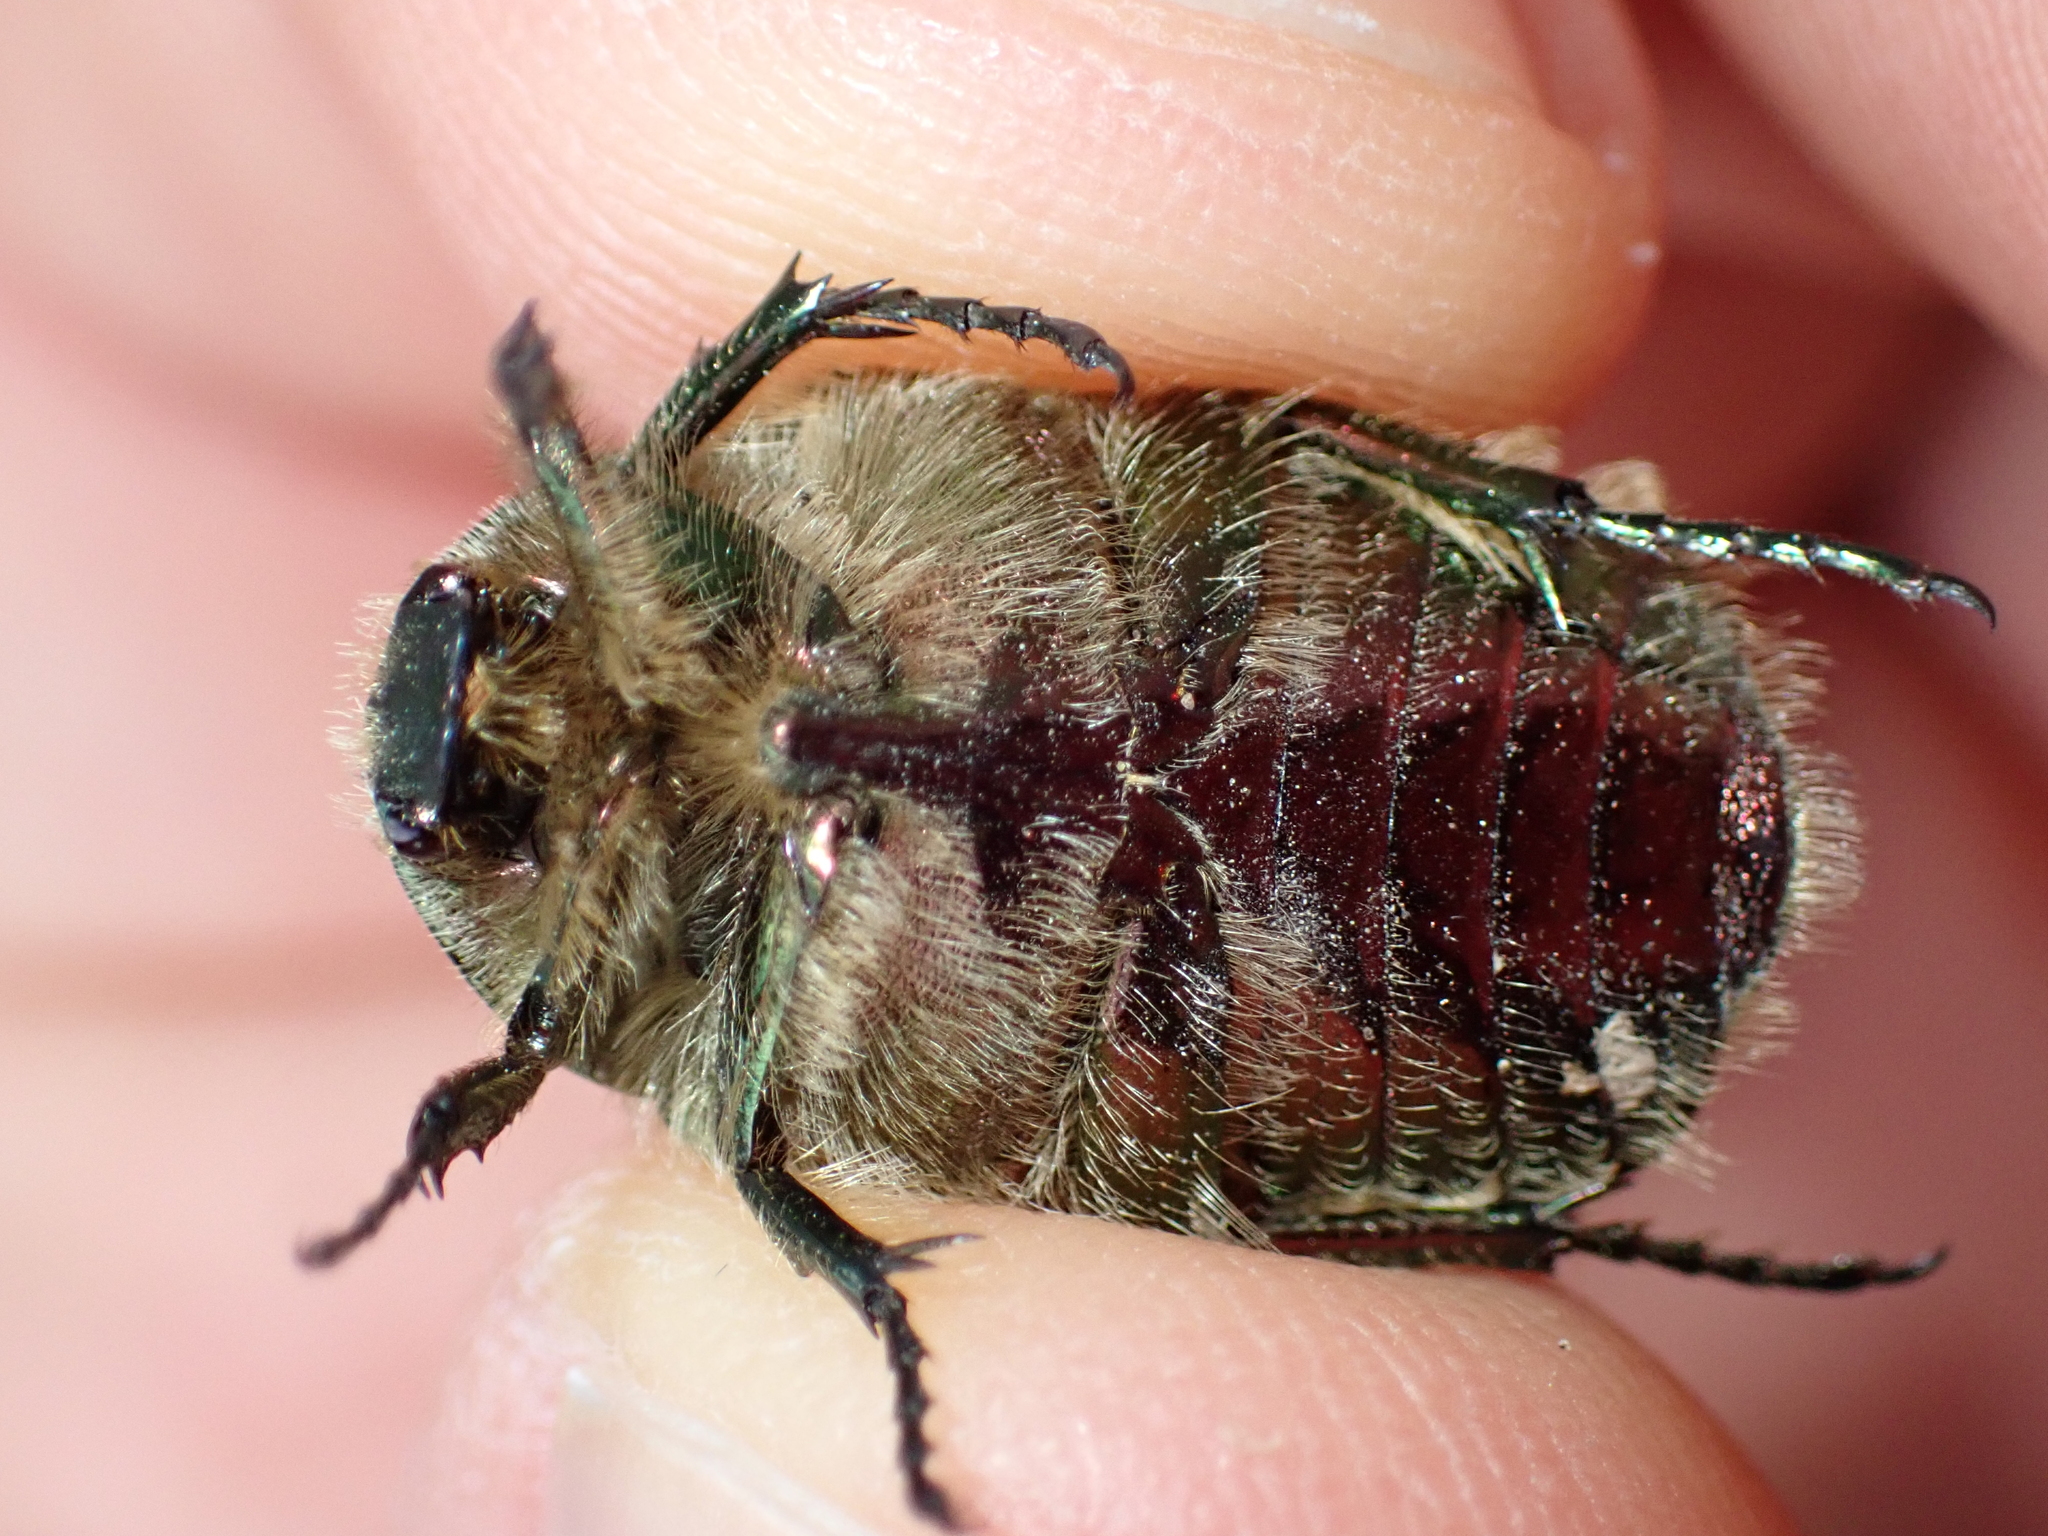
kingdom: Animalia
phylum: Arthropoda
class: Insecta
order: Coleoptera
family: Scarabaeidae
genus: Cetonia
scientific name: Cetonia aurata
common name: Rose chafer
